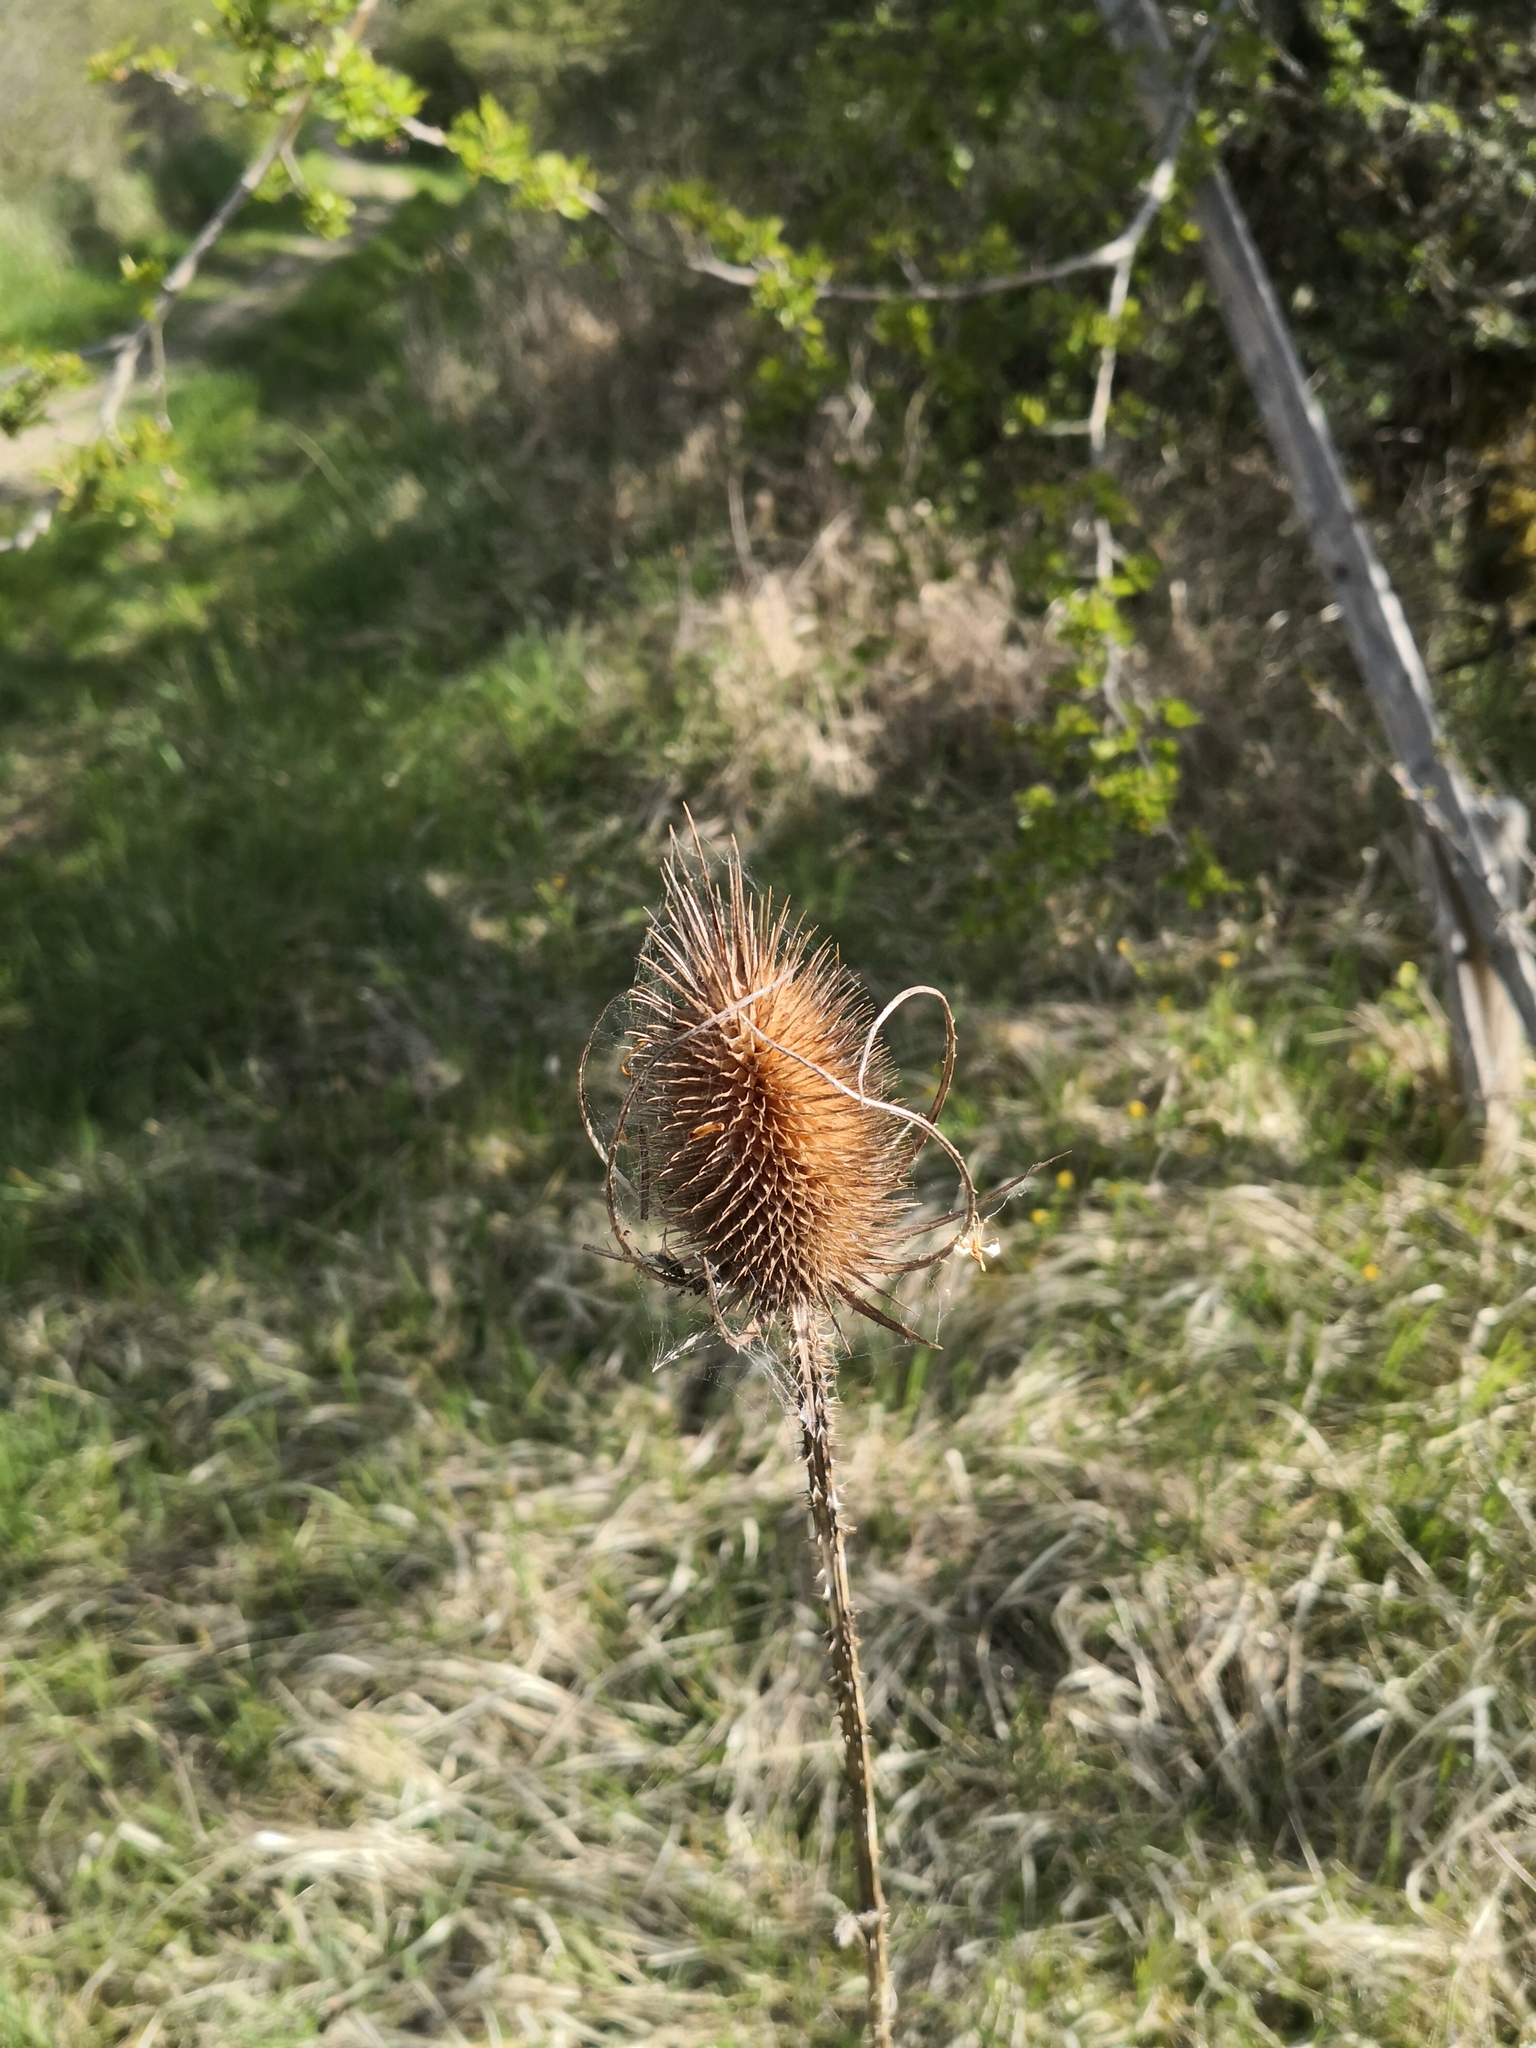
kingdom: Plantae
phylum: Tracheophyta
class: Magnoliopsida
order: Dipsacales
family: Caprifoliaceae
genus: Dipsacus
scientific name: Dipsacus fullonum
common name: Teasel
